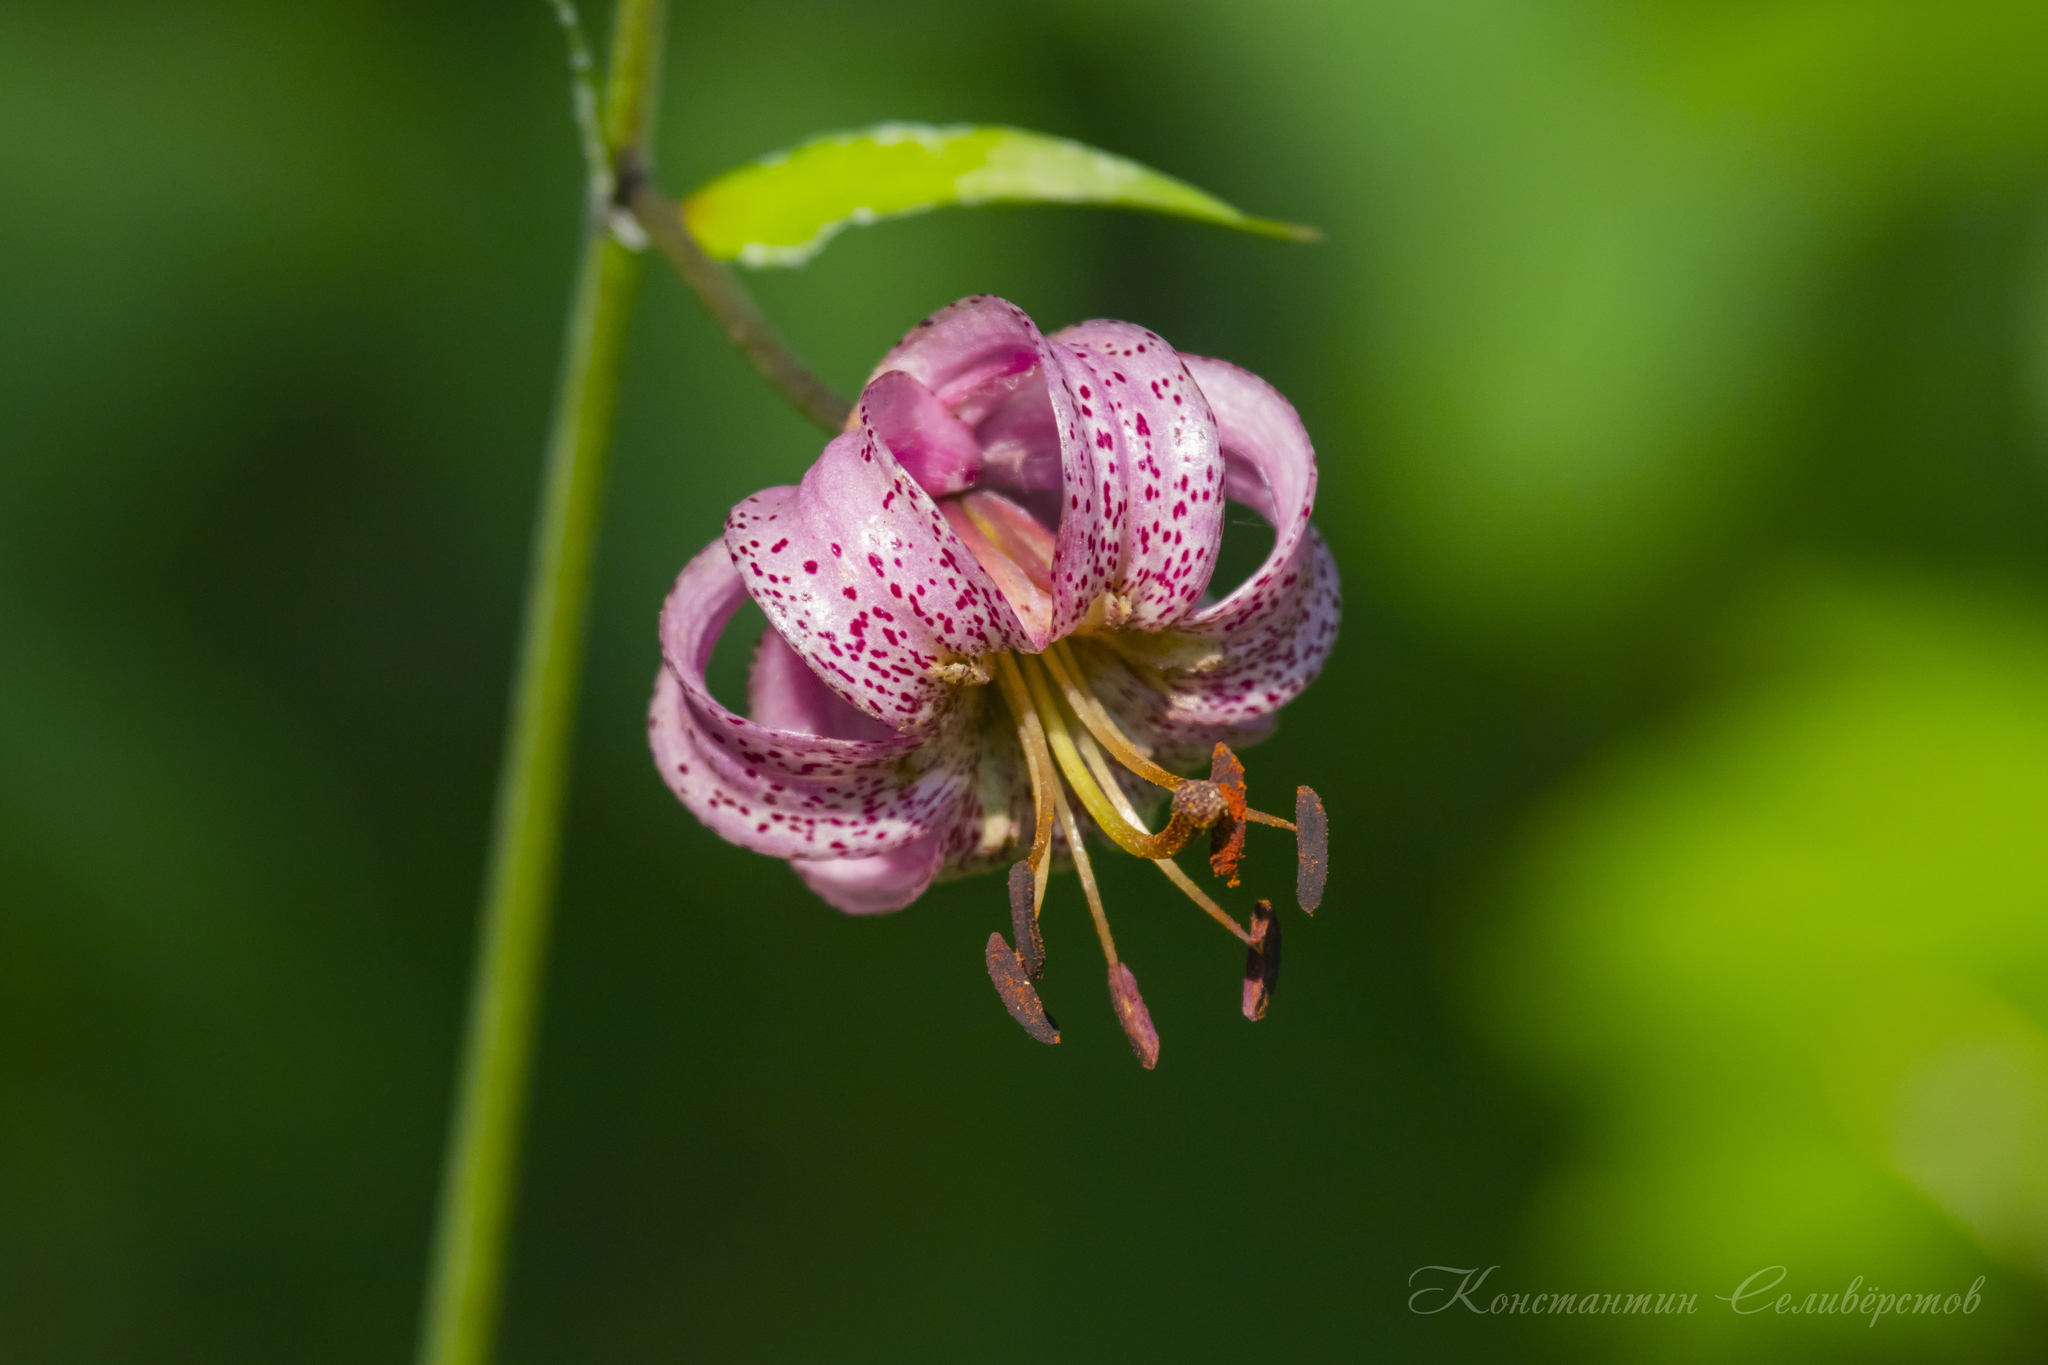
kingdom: Plantae
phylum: Tracheophyta
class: Liliopsida
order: Liliales
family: Liliaceae
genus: Lilium
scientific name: Lilium martagon
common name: Martagon lily
